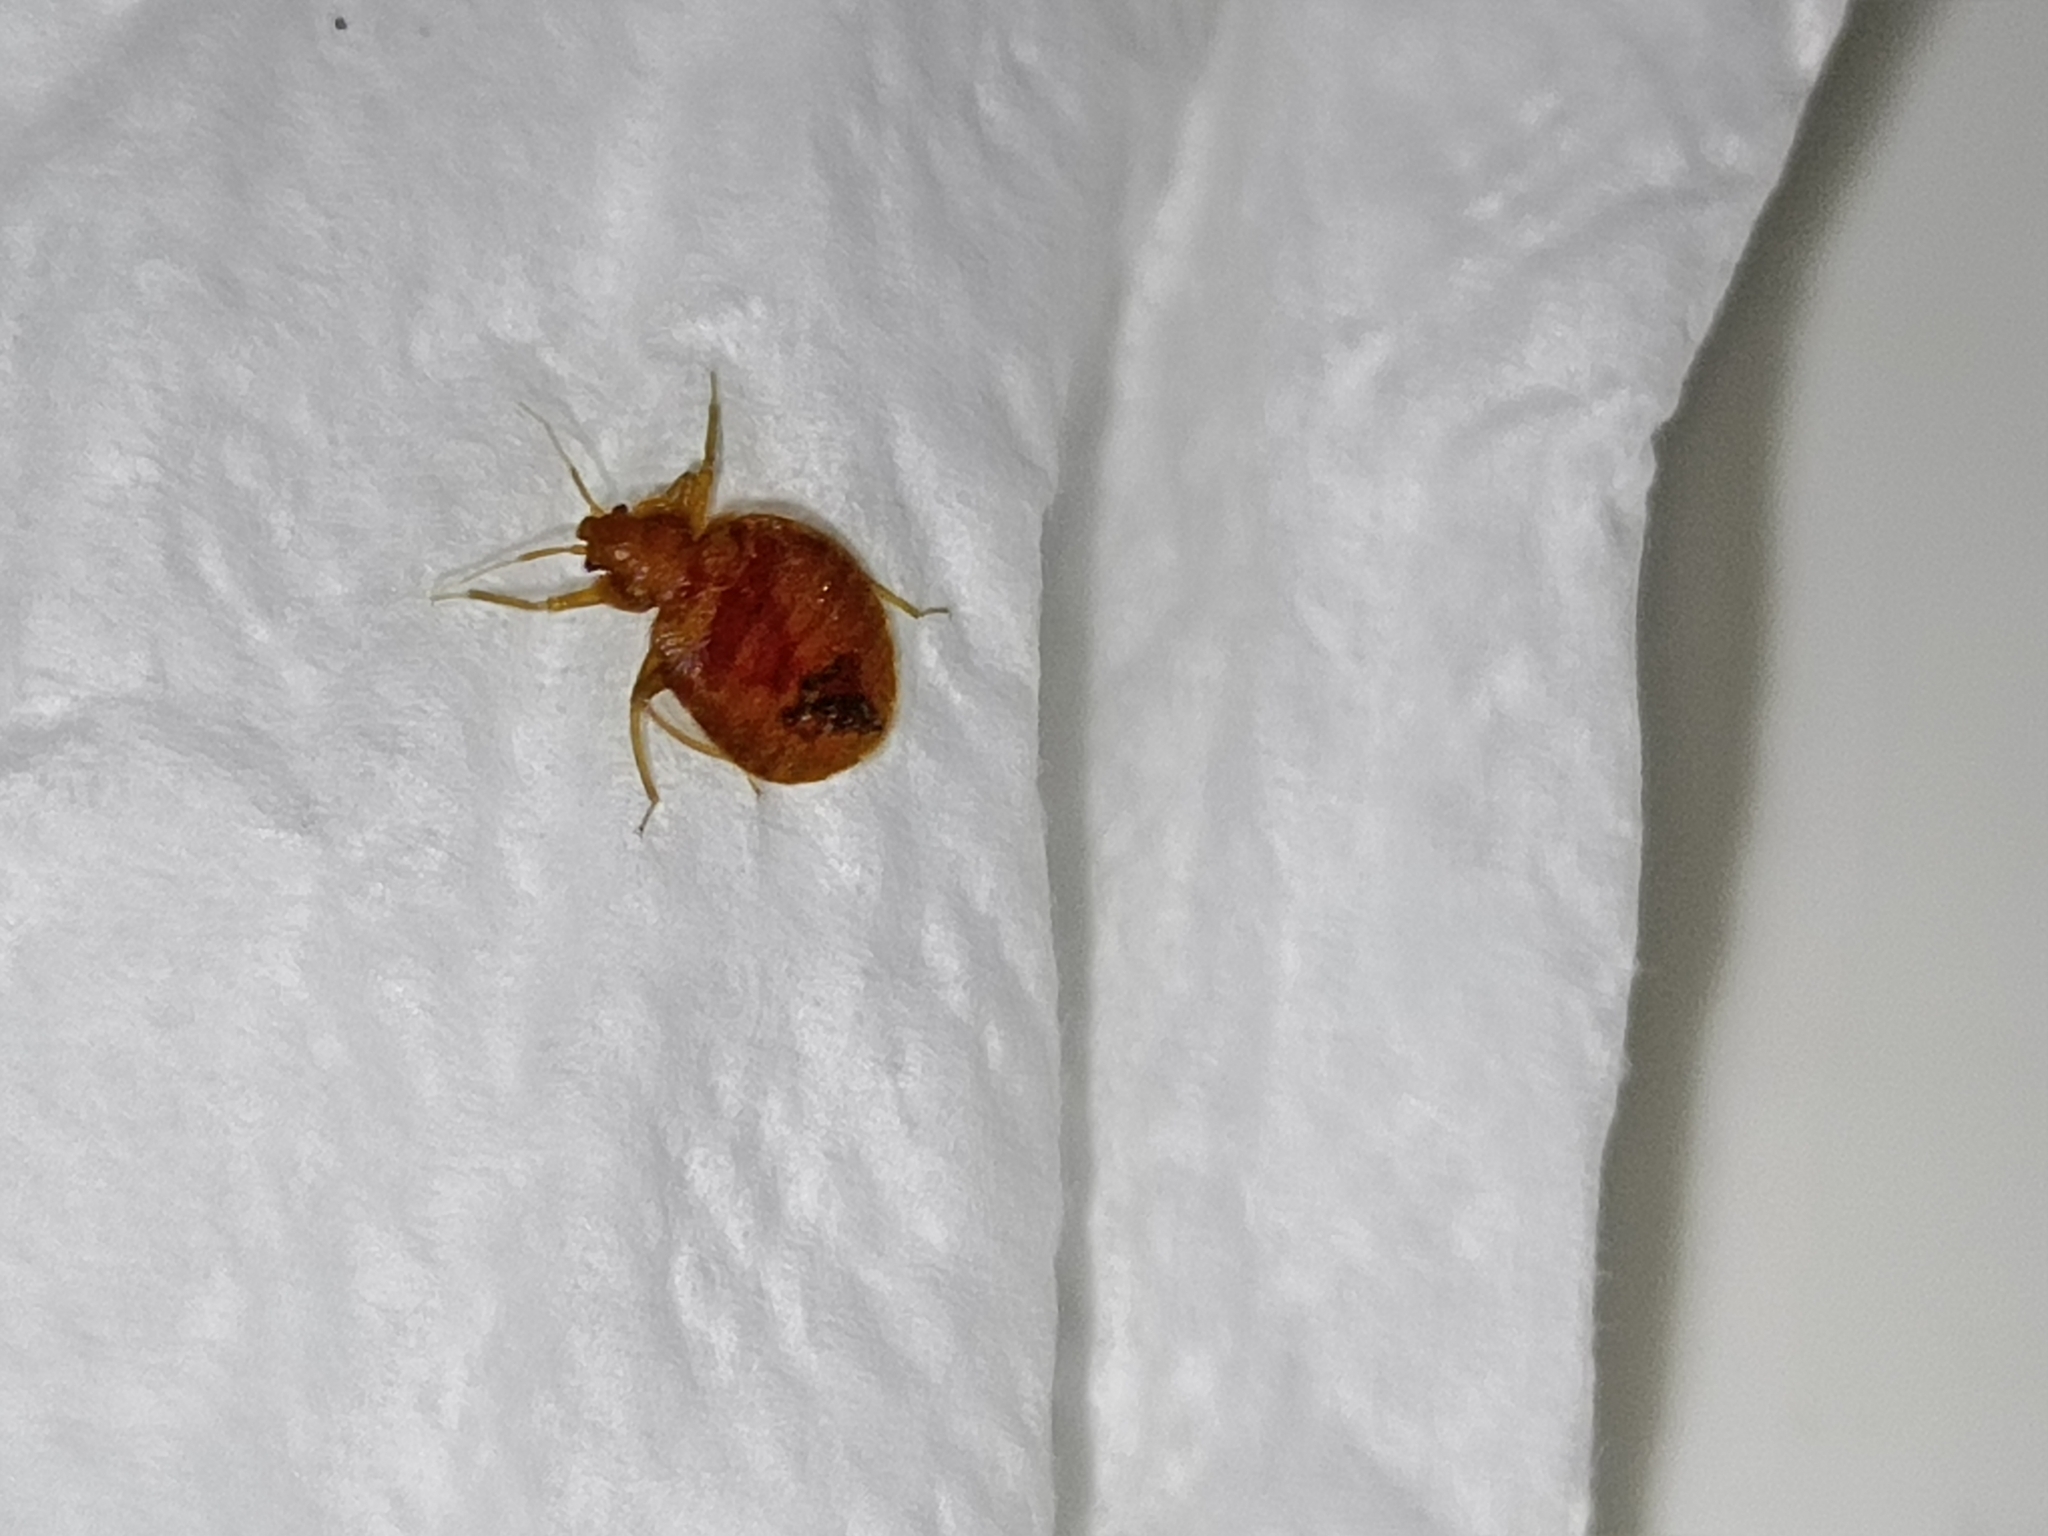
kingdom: Animalia
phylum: Arthropoda
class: Insecta
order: Hemiptera
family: Cimicidae
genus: Cimex
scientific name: Cimex lectularius
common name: Bed bug
